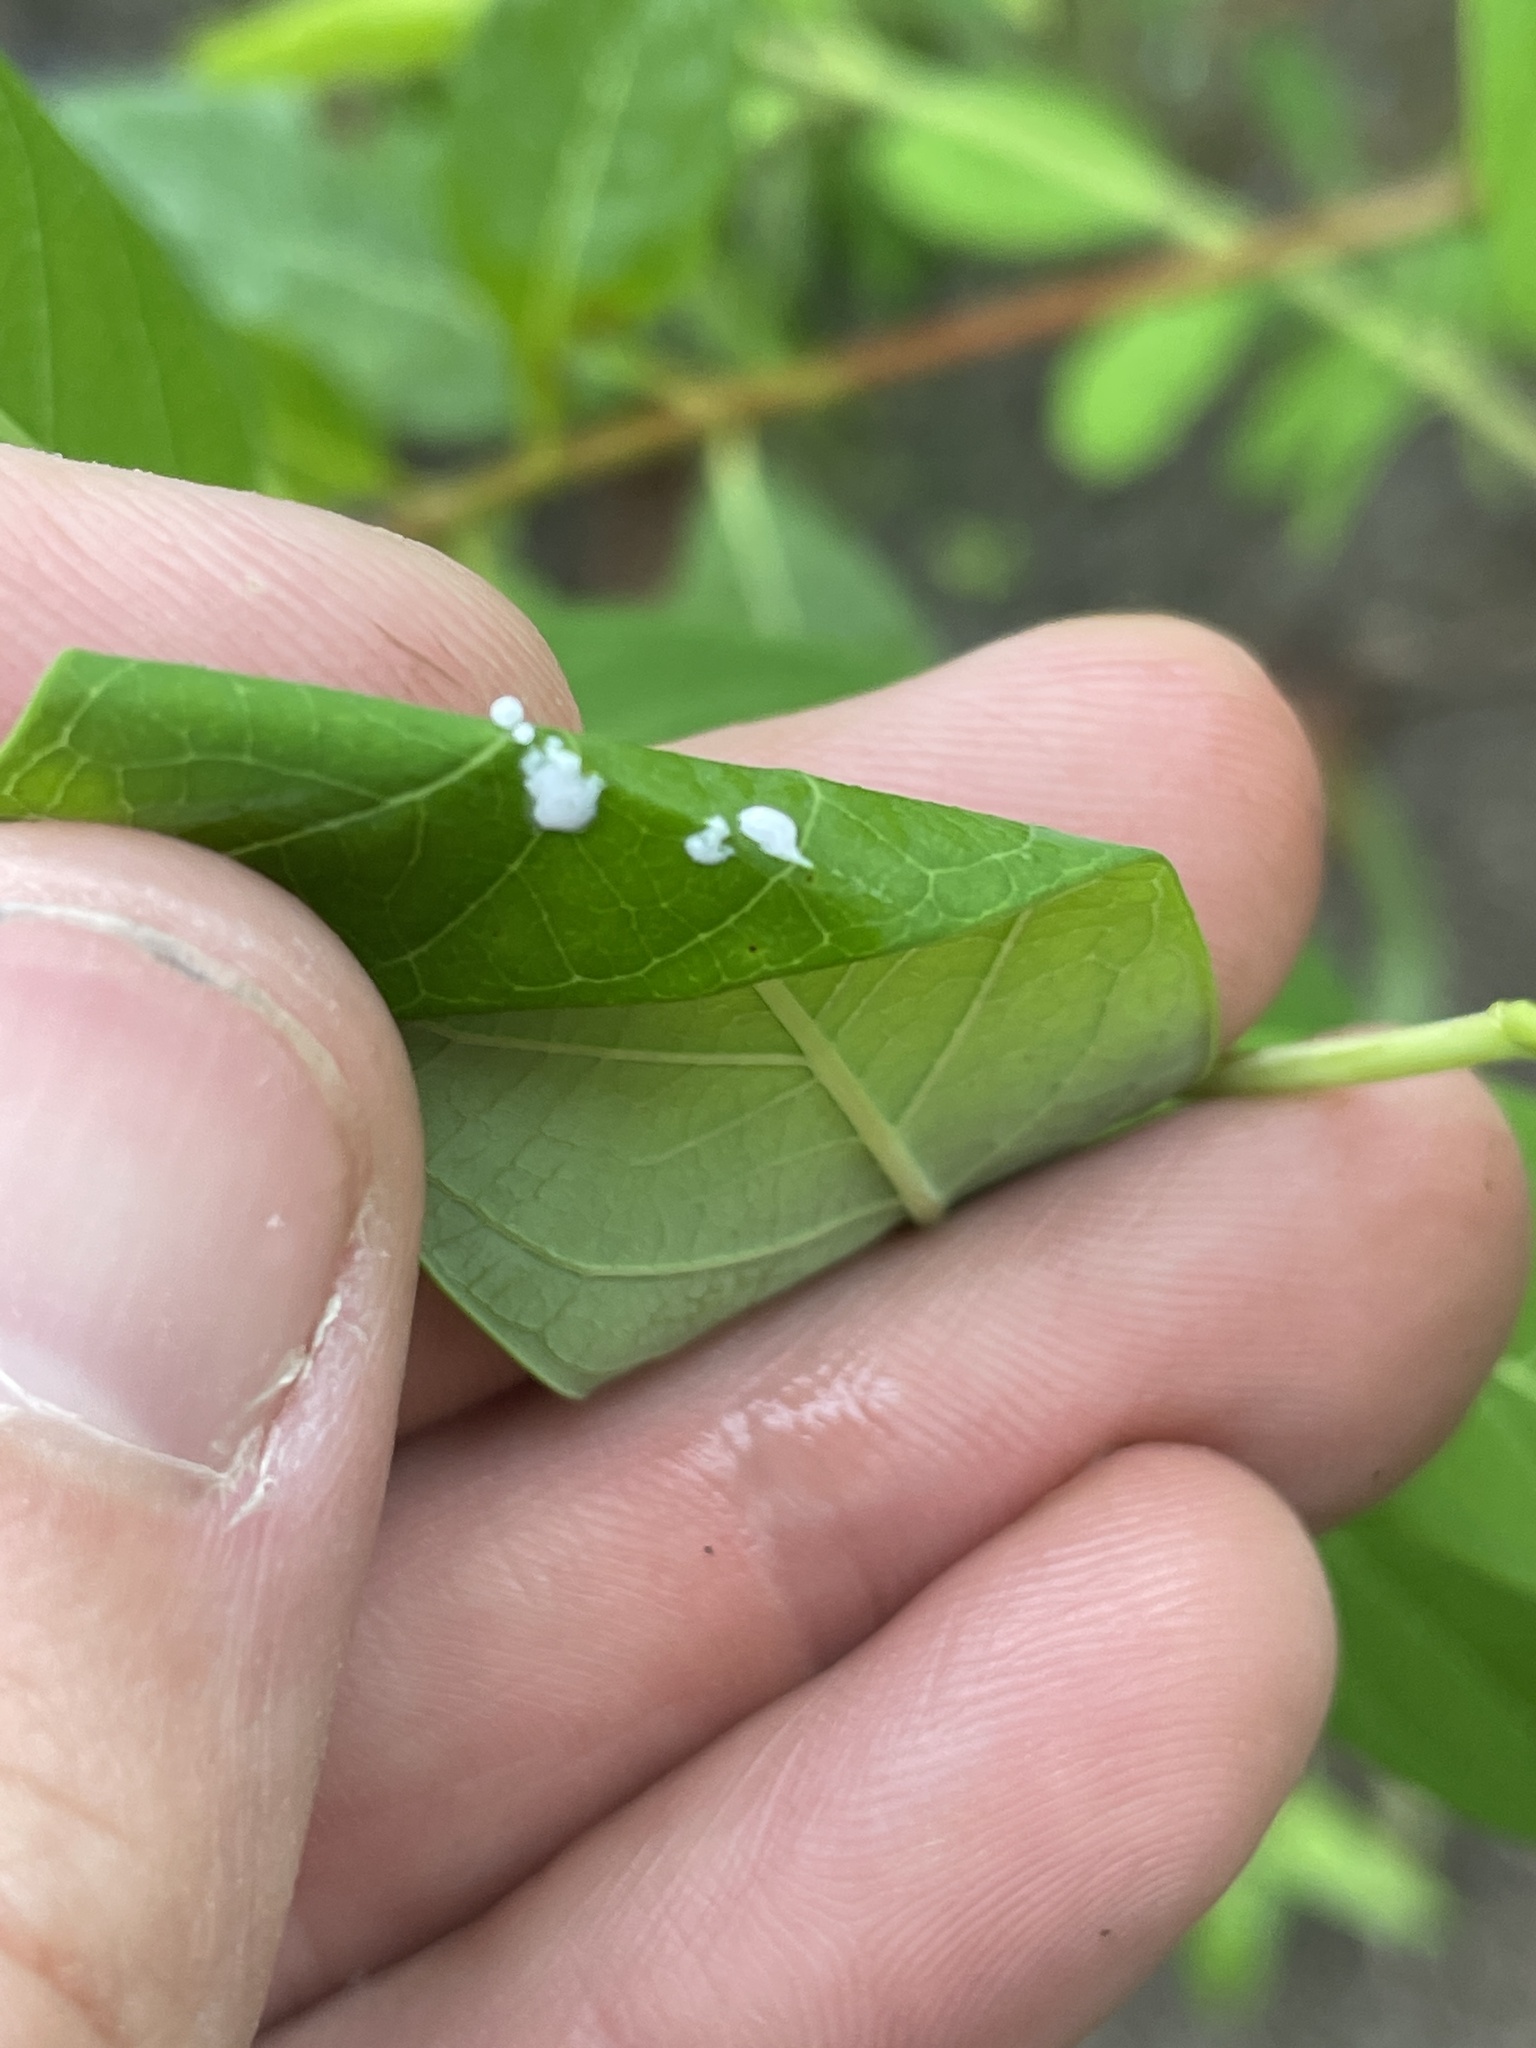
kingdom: Plantae
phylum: Tracheophyta
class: Magnoliopsida
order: Gentianales
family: Apocynaceae
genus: Apocynum
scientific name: Apocynum cannabinum
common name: Hemp dogbane
